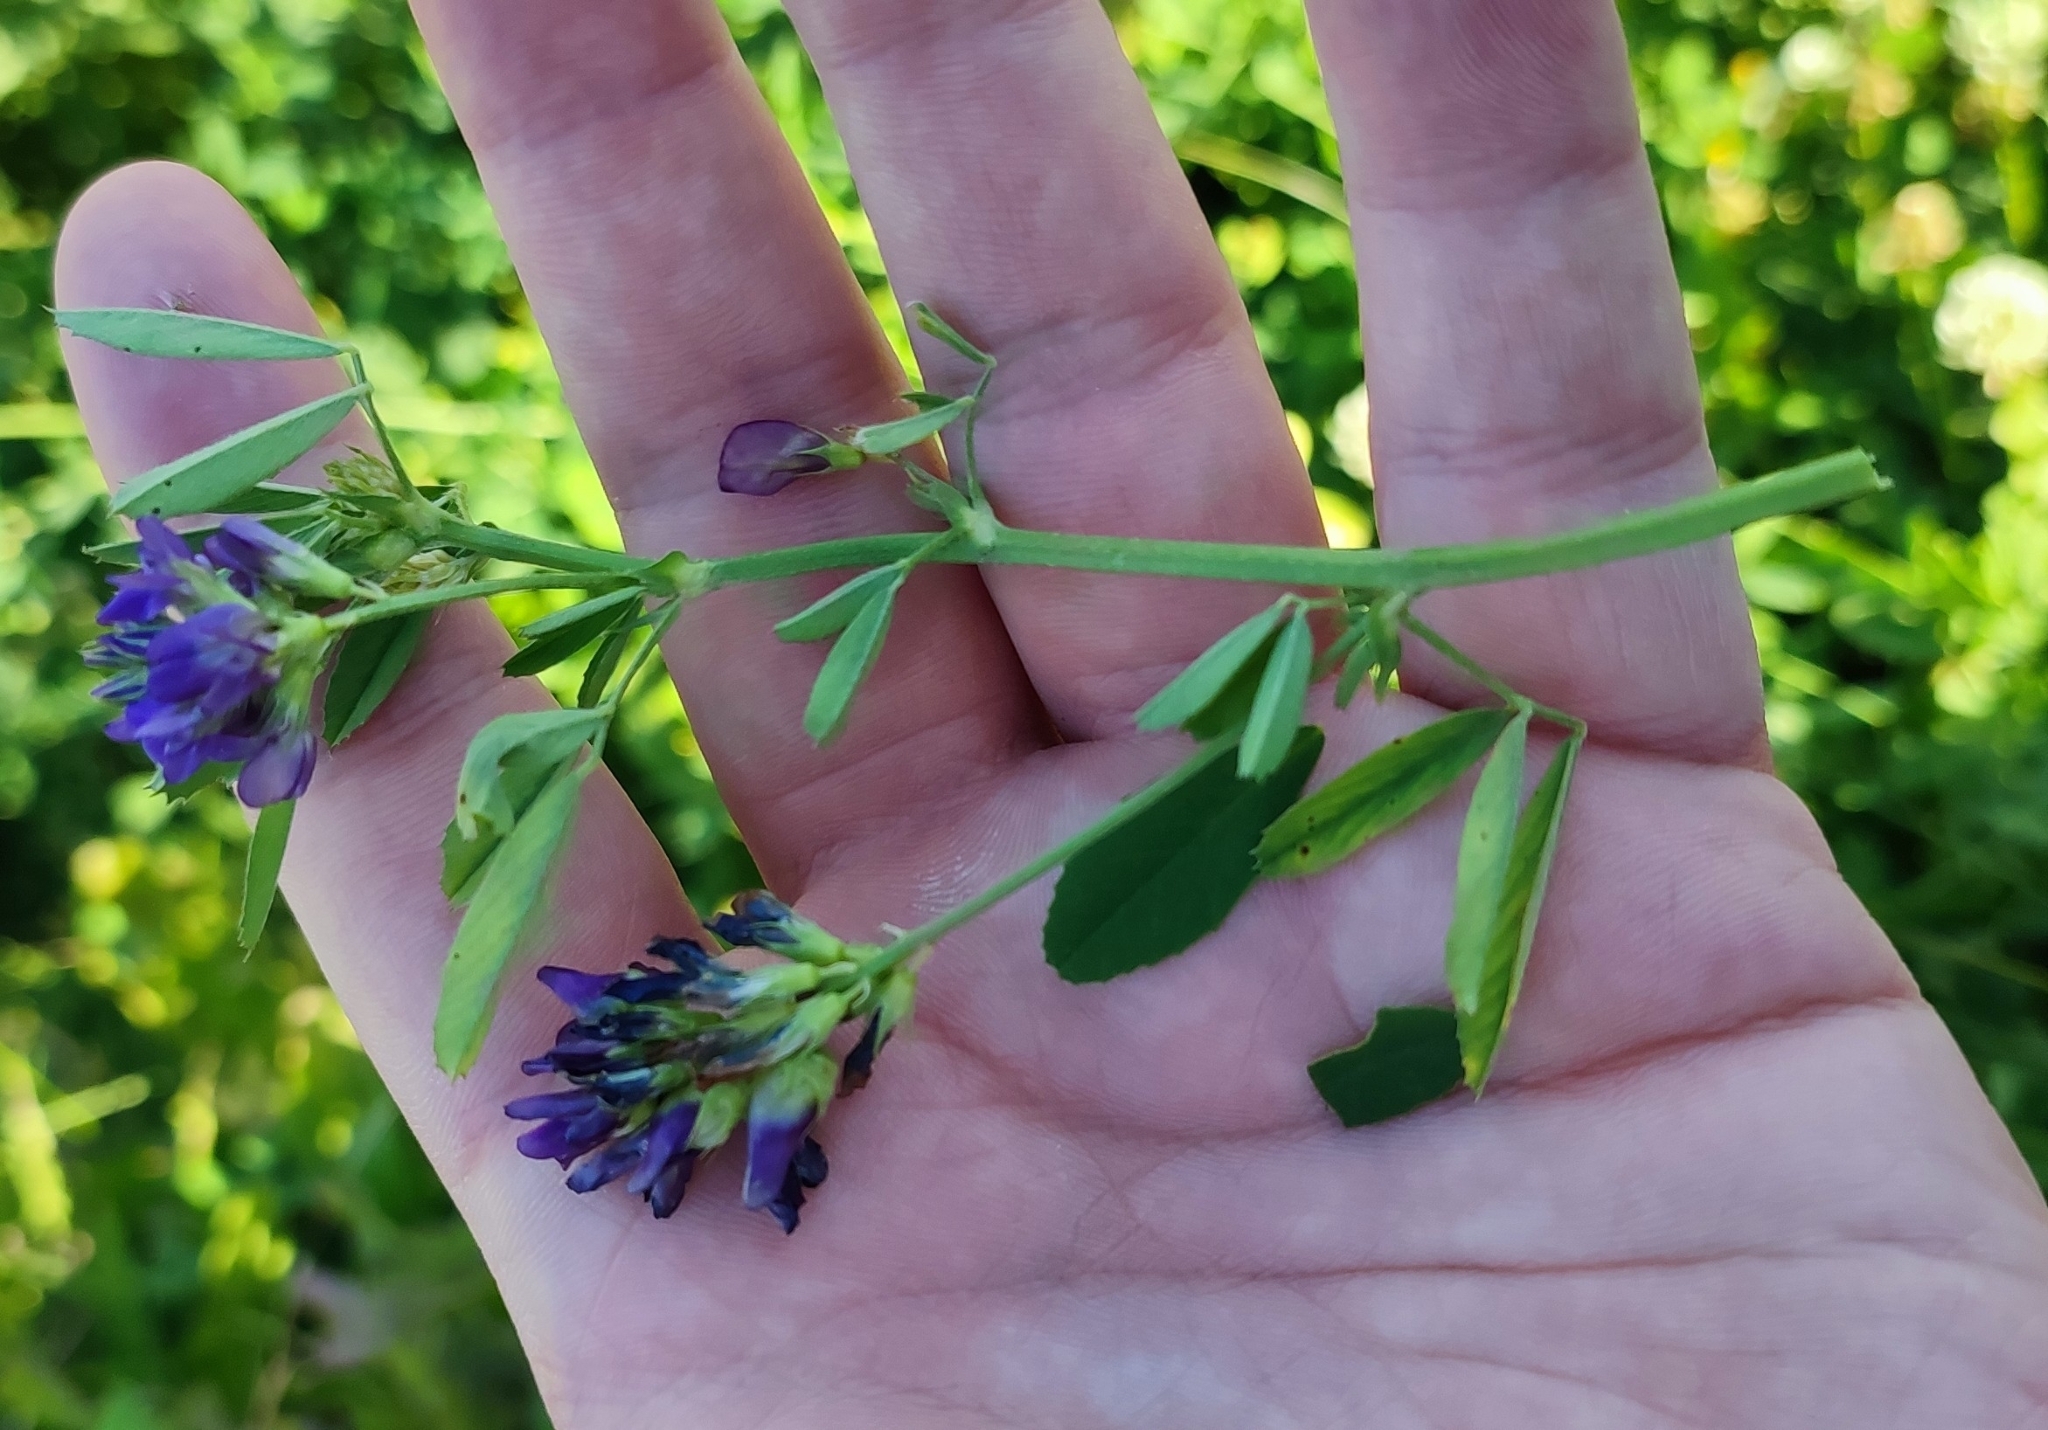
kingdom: Plantae
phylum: Tracheophyta
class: Magnoliopsida
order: Fabales
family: Fabaceae
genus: Medicago
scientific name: Medicago varia
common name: Sand lucerne
